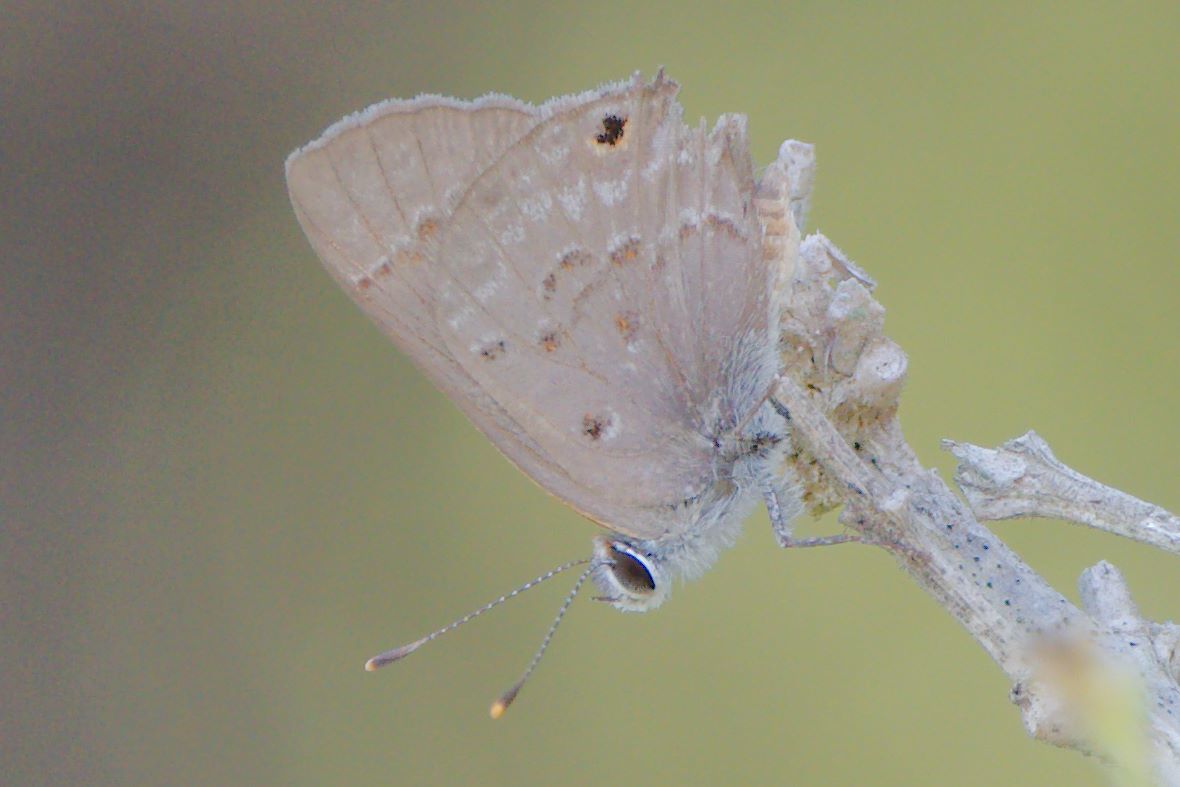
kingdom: Animalia
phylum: Arthropoda
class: Insecta
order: Lepidoptera
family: Lycaenidae
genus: Callicista
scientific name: Callicista columella
